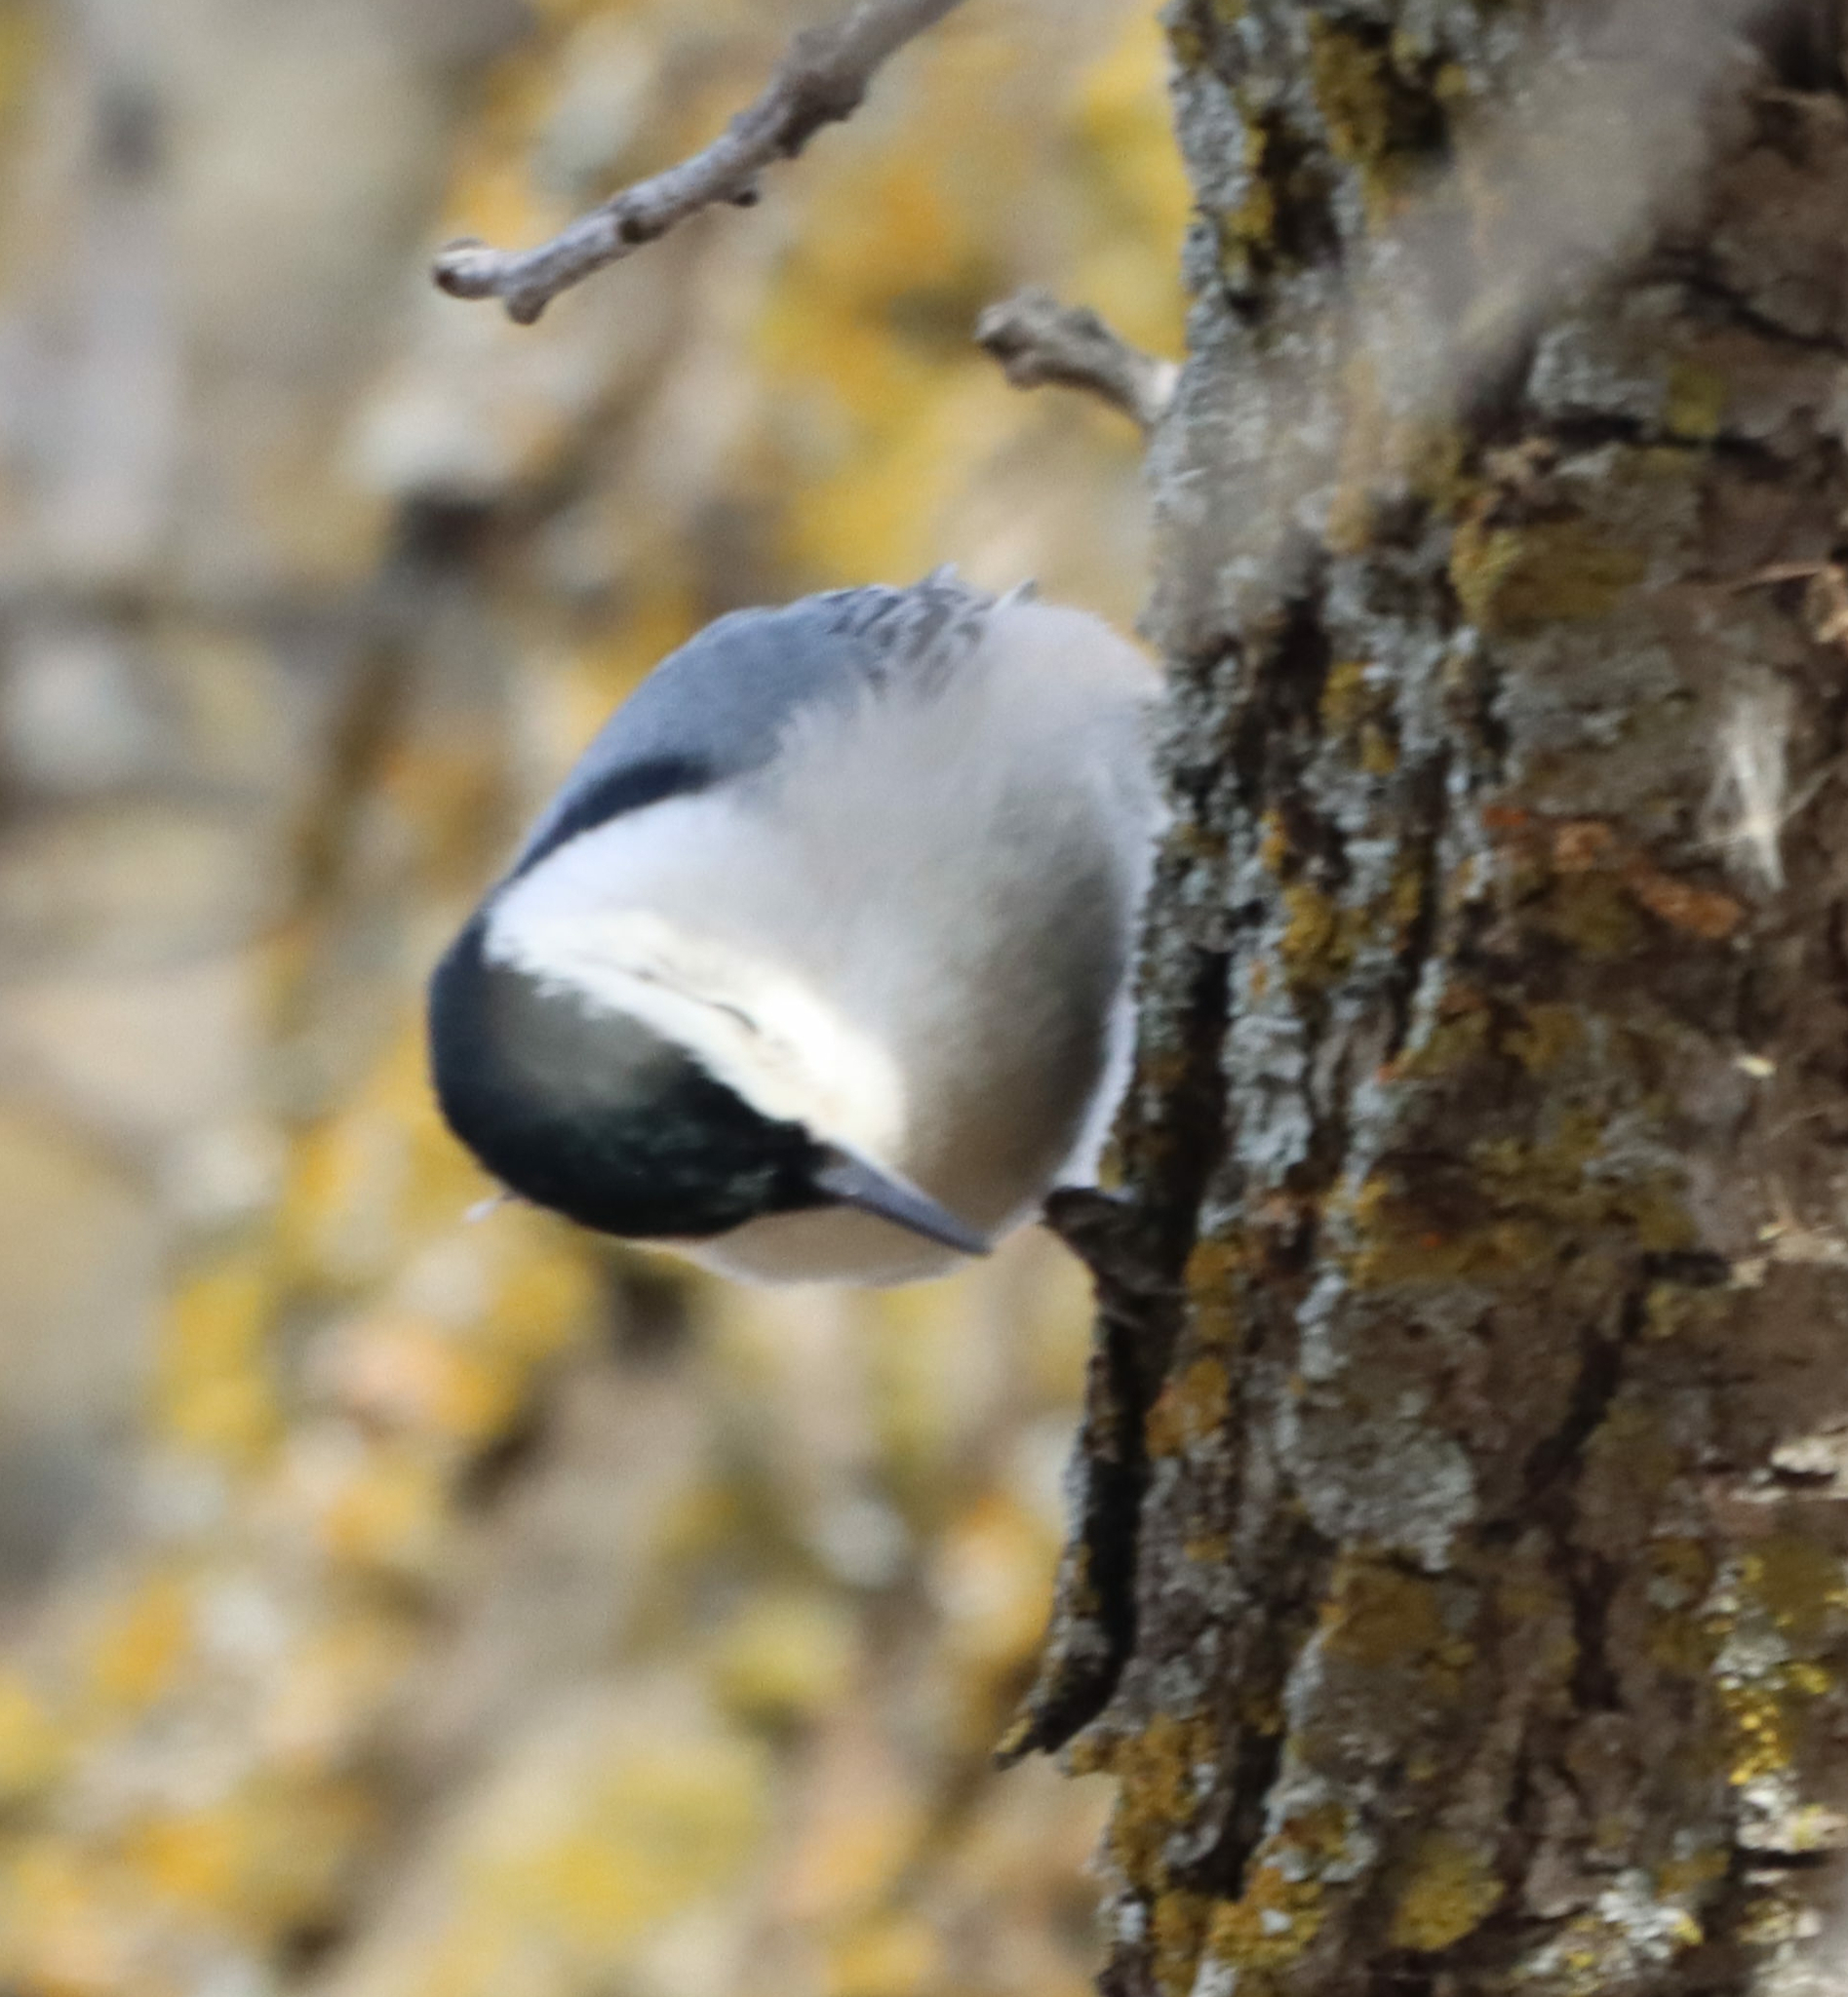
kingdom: Animalia
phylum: Chordata
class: Aves
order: Passeriformes
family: Sittidae
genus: Sitta
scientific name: Sitta carolinensis
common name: White-breasted nuthatch
